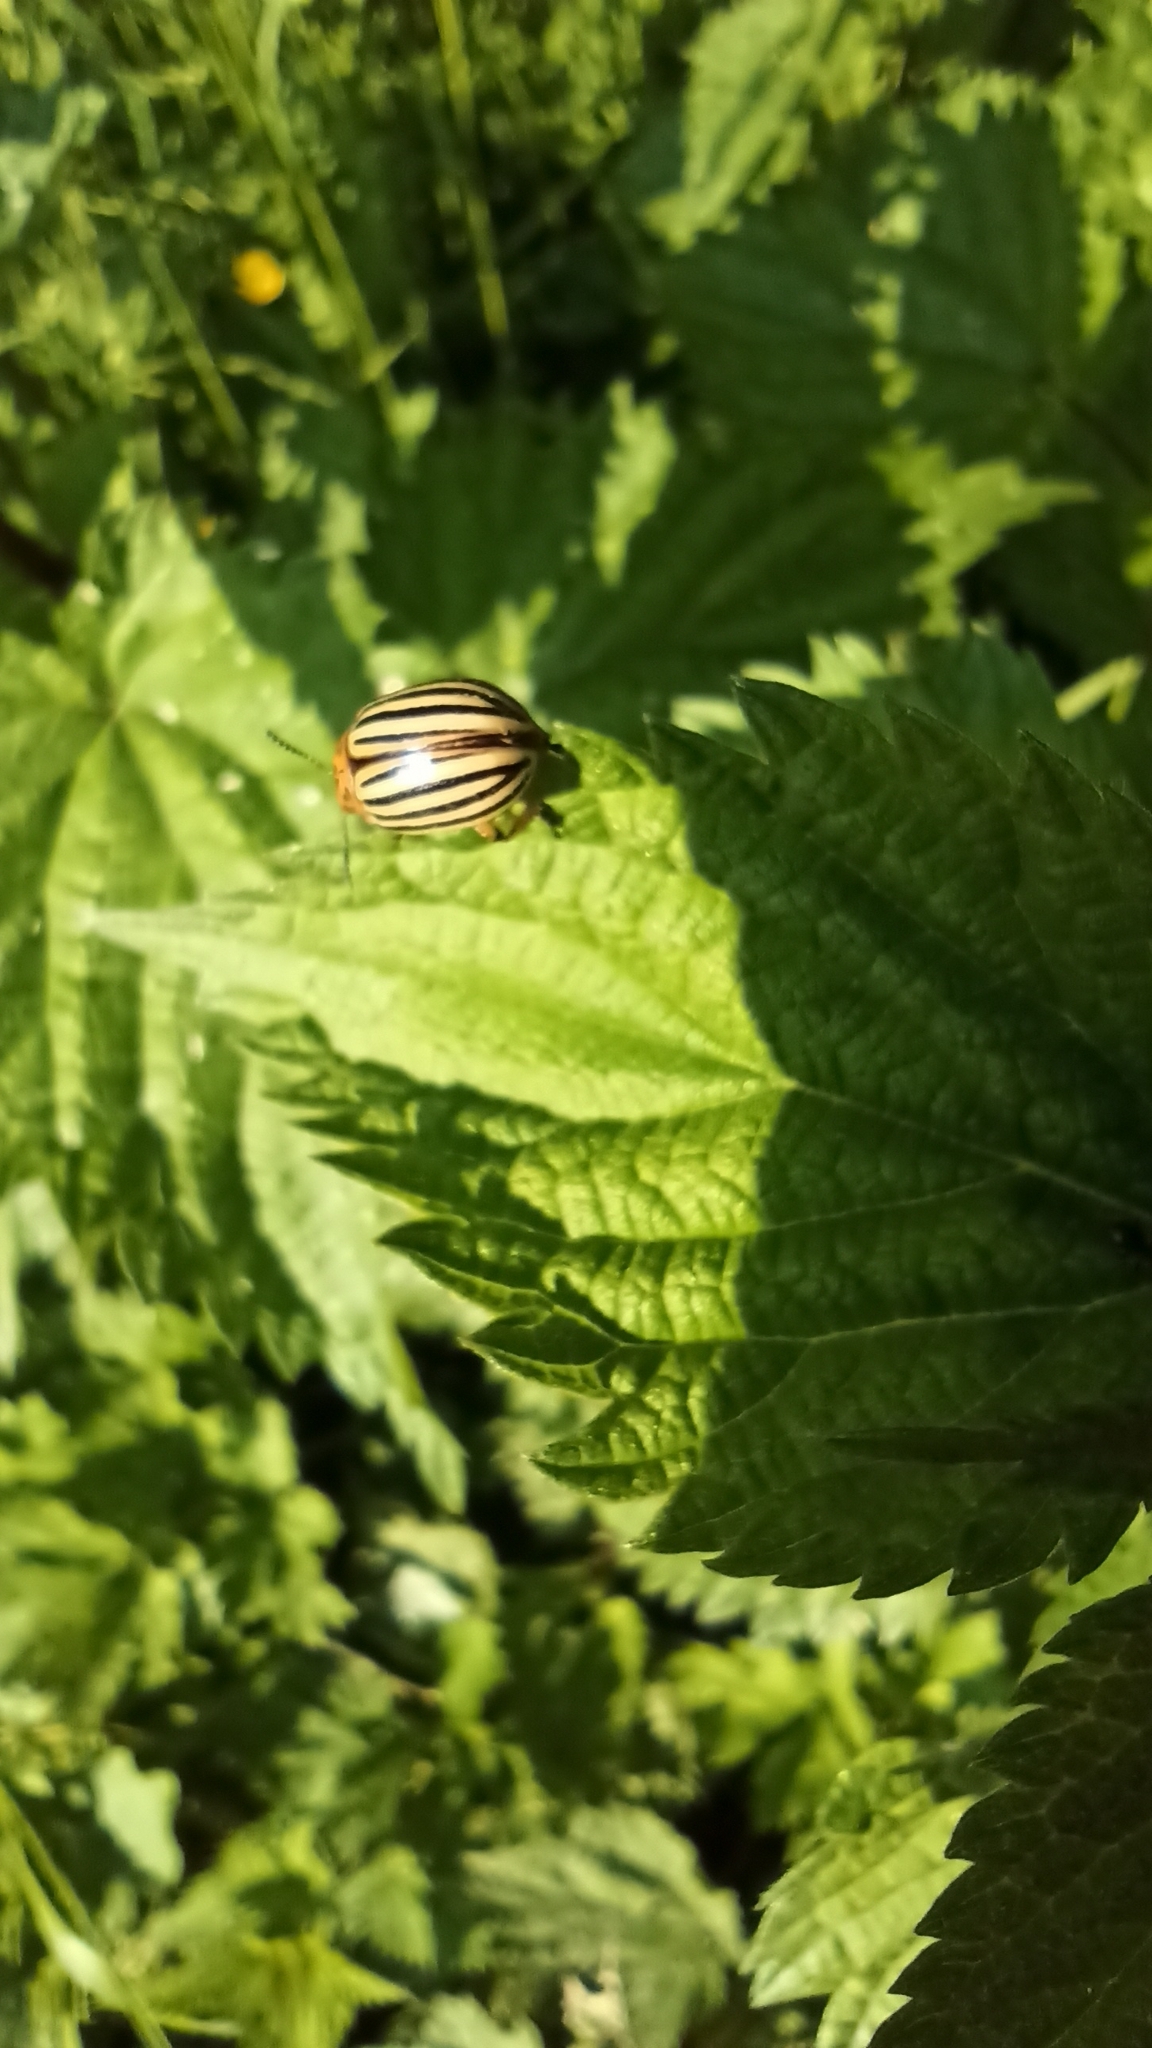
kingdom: Animalia
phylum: Arthropoda
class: Insecta
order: Coleoptera
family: Chrysomelidae
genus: Leptinotarsa
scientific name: Leptinotarsa decemlineata
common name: Colorado potato beetle
